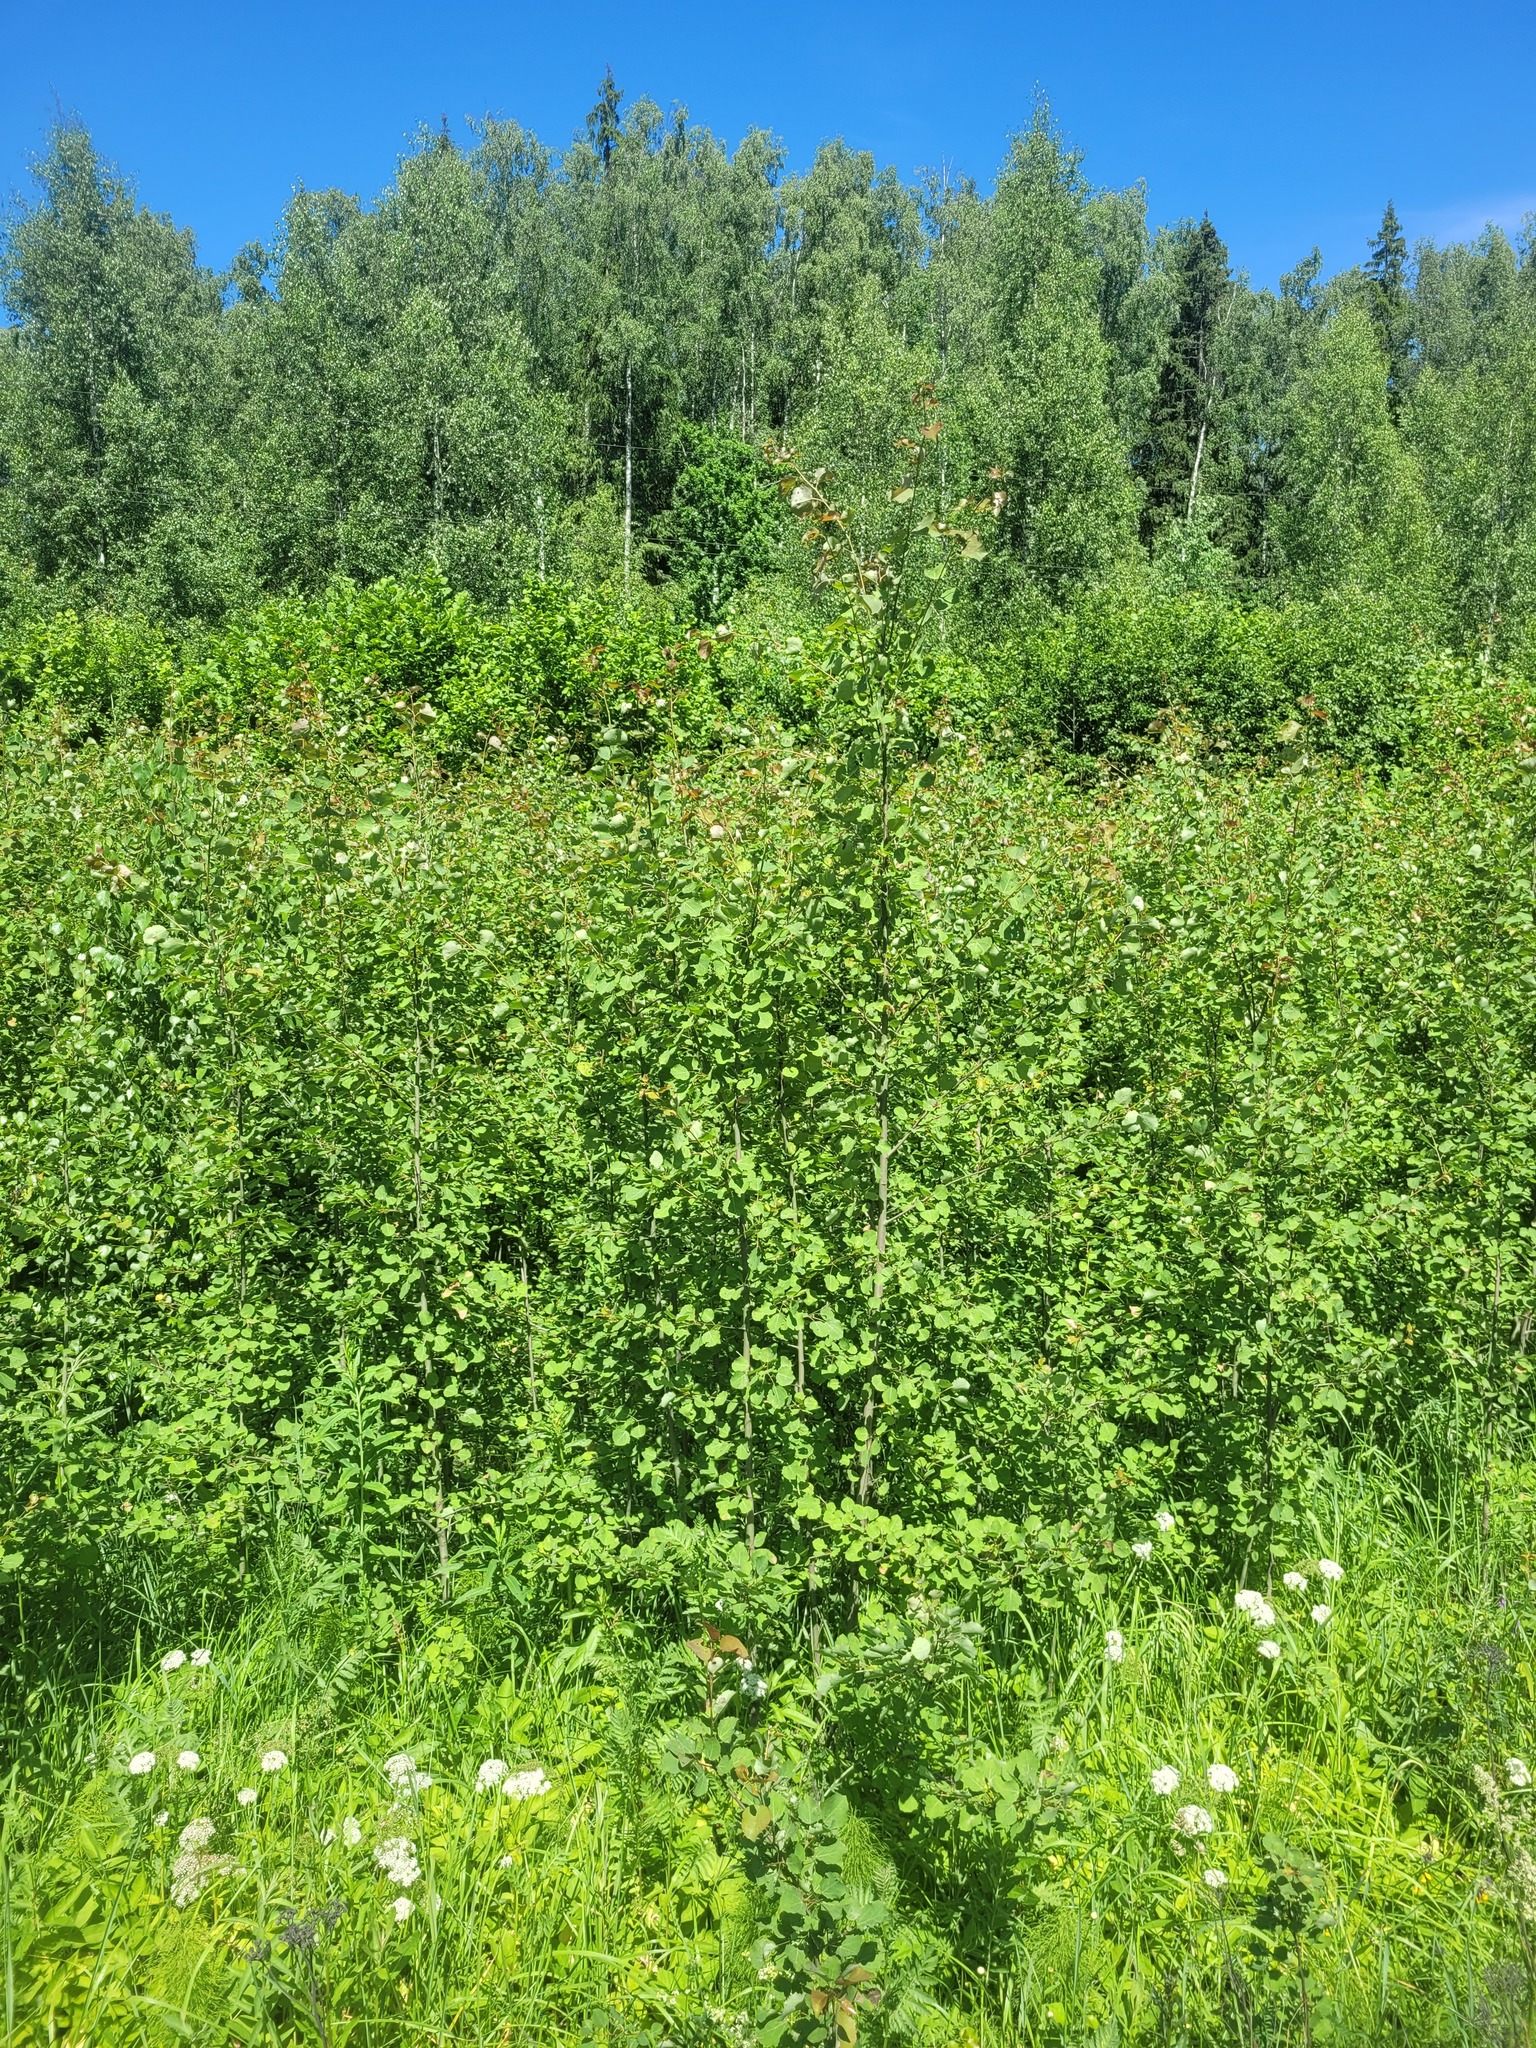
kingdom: Plantae
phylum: Tracheophyta
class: Magnoliopsida
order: Malpighiales
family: Salicaceae
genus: Populus
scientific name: Populus tremula
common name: European aspen
